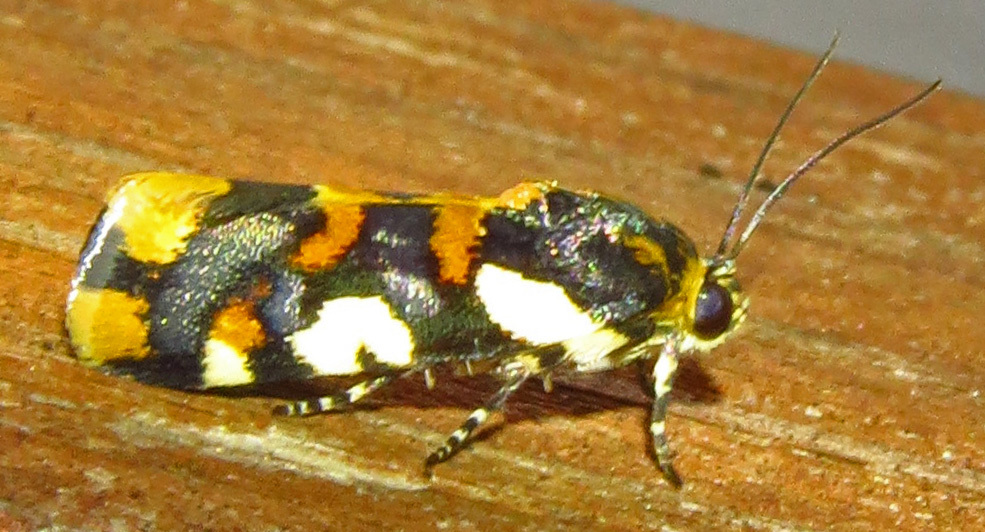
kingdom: Animalia
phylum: Arthropoda
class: Insecta
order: Lepidoptera
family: Noctuidae
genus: Acontia
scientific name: Acontia dama
